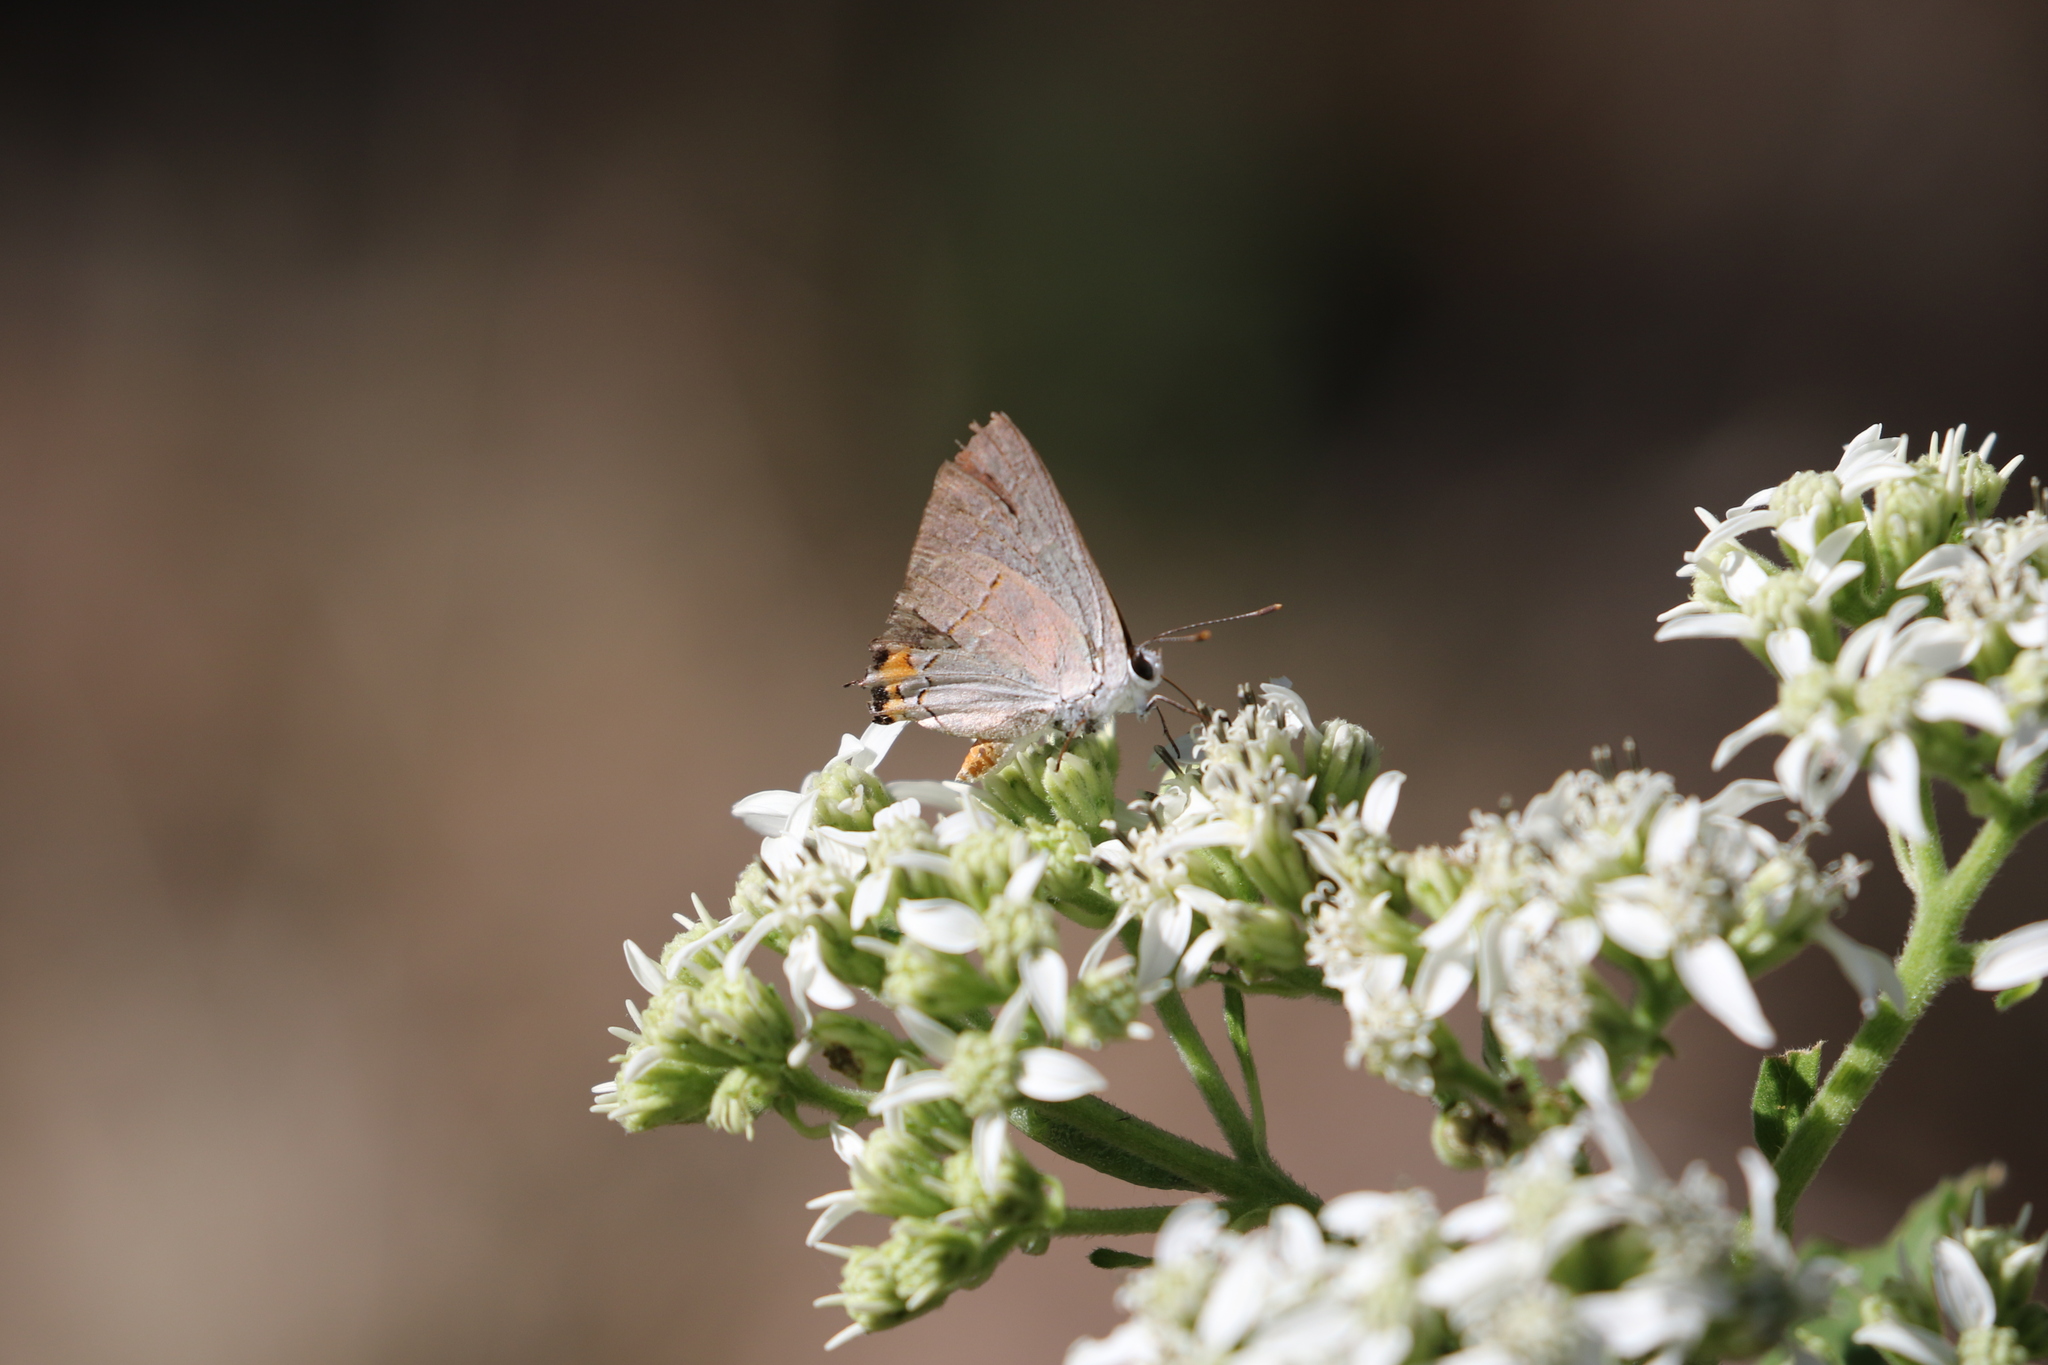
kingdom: Animalia
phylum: Arthropoda
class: Insecta
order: Lepidoptera
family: Lycaenidae
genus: Strymon
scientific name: Strymon melinus
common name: Gray hairstreak
